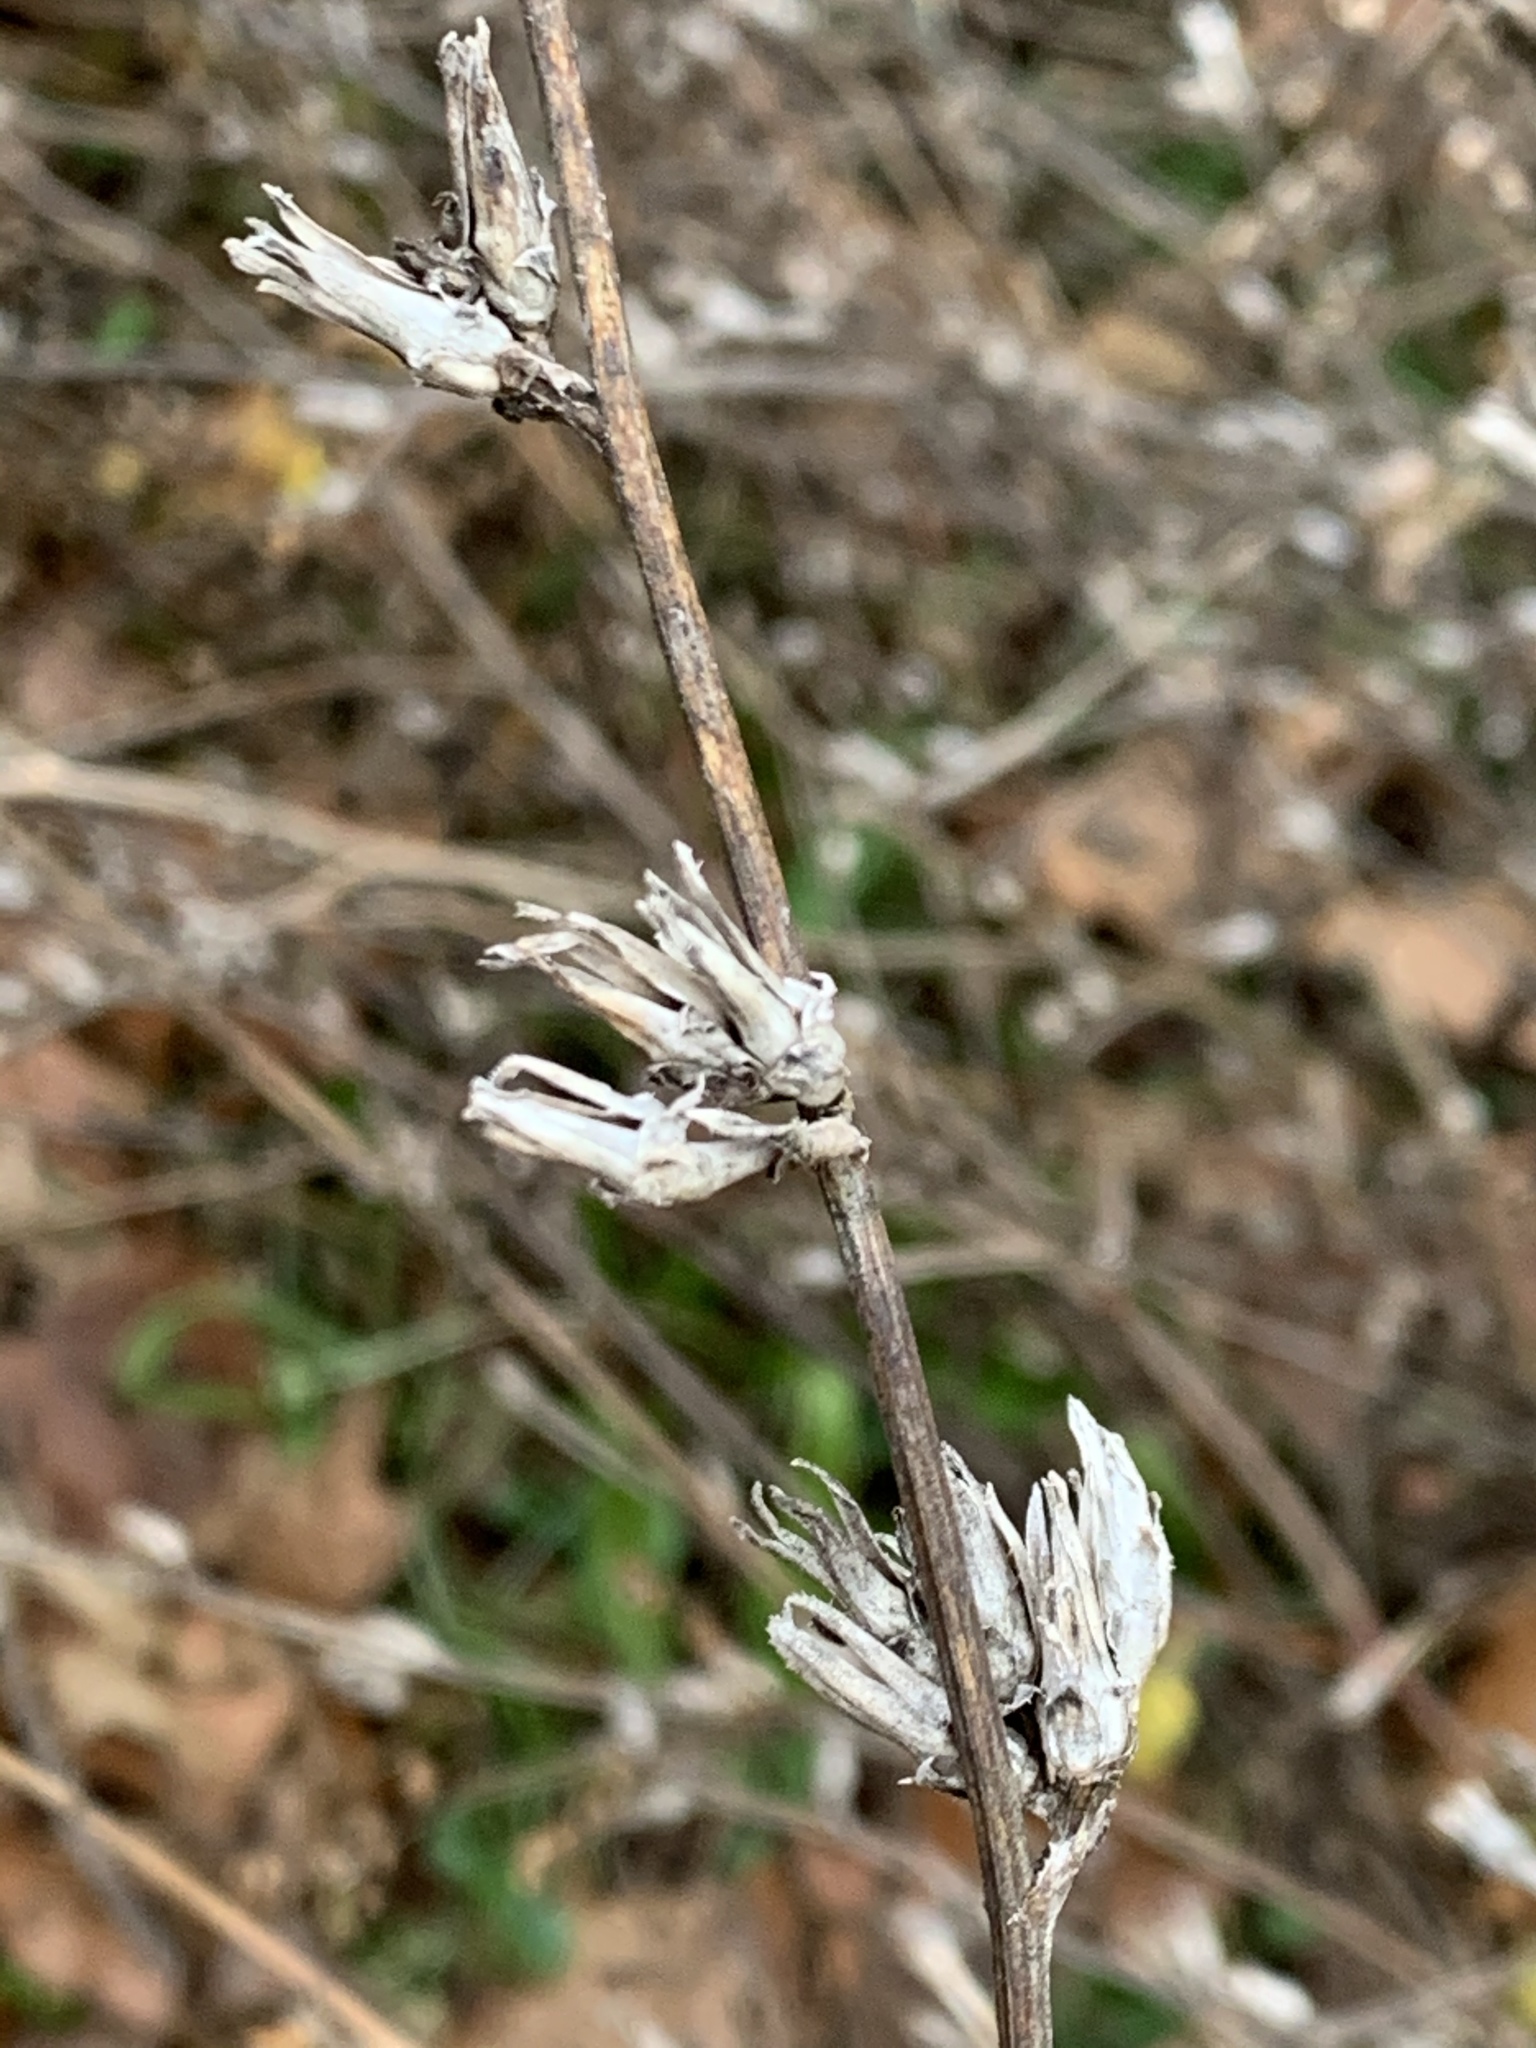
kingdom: Plantae
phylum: Tracheophyta
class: Magnoliopsida
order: Asterales
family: Asteraceae
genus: Cichorium
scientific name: Cichorium intybus
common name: Chicory
